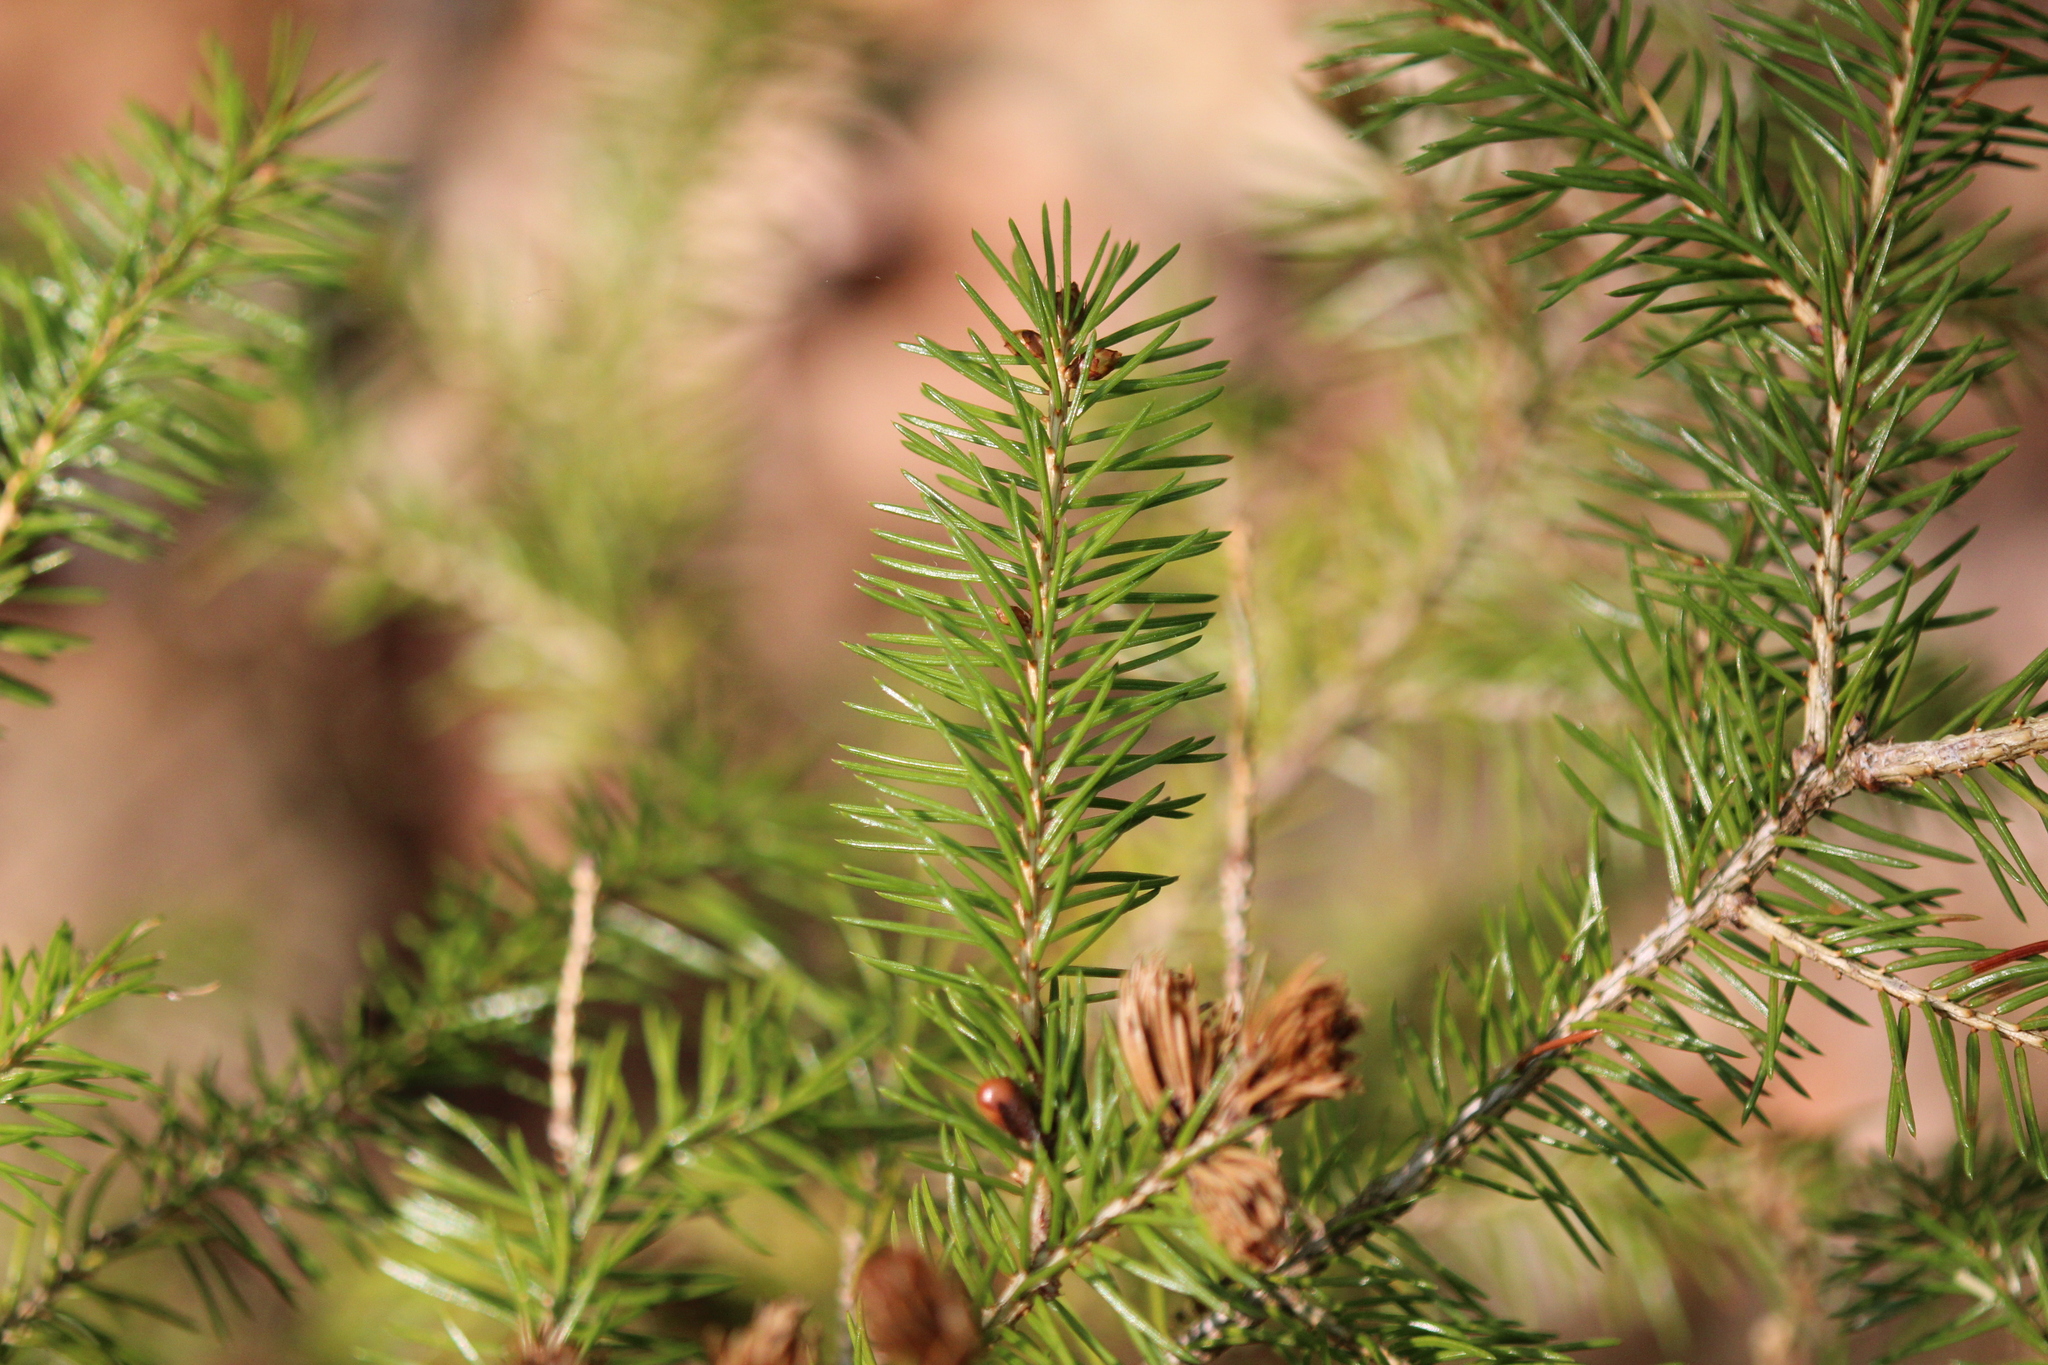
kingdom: Plantae
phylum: Tracheophyta
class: Pinopsida
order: Pinales
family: Pinaceae
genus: Picea
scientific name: Picea rubens
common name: Red spruce
